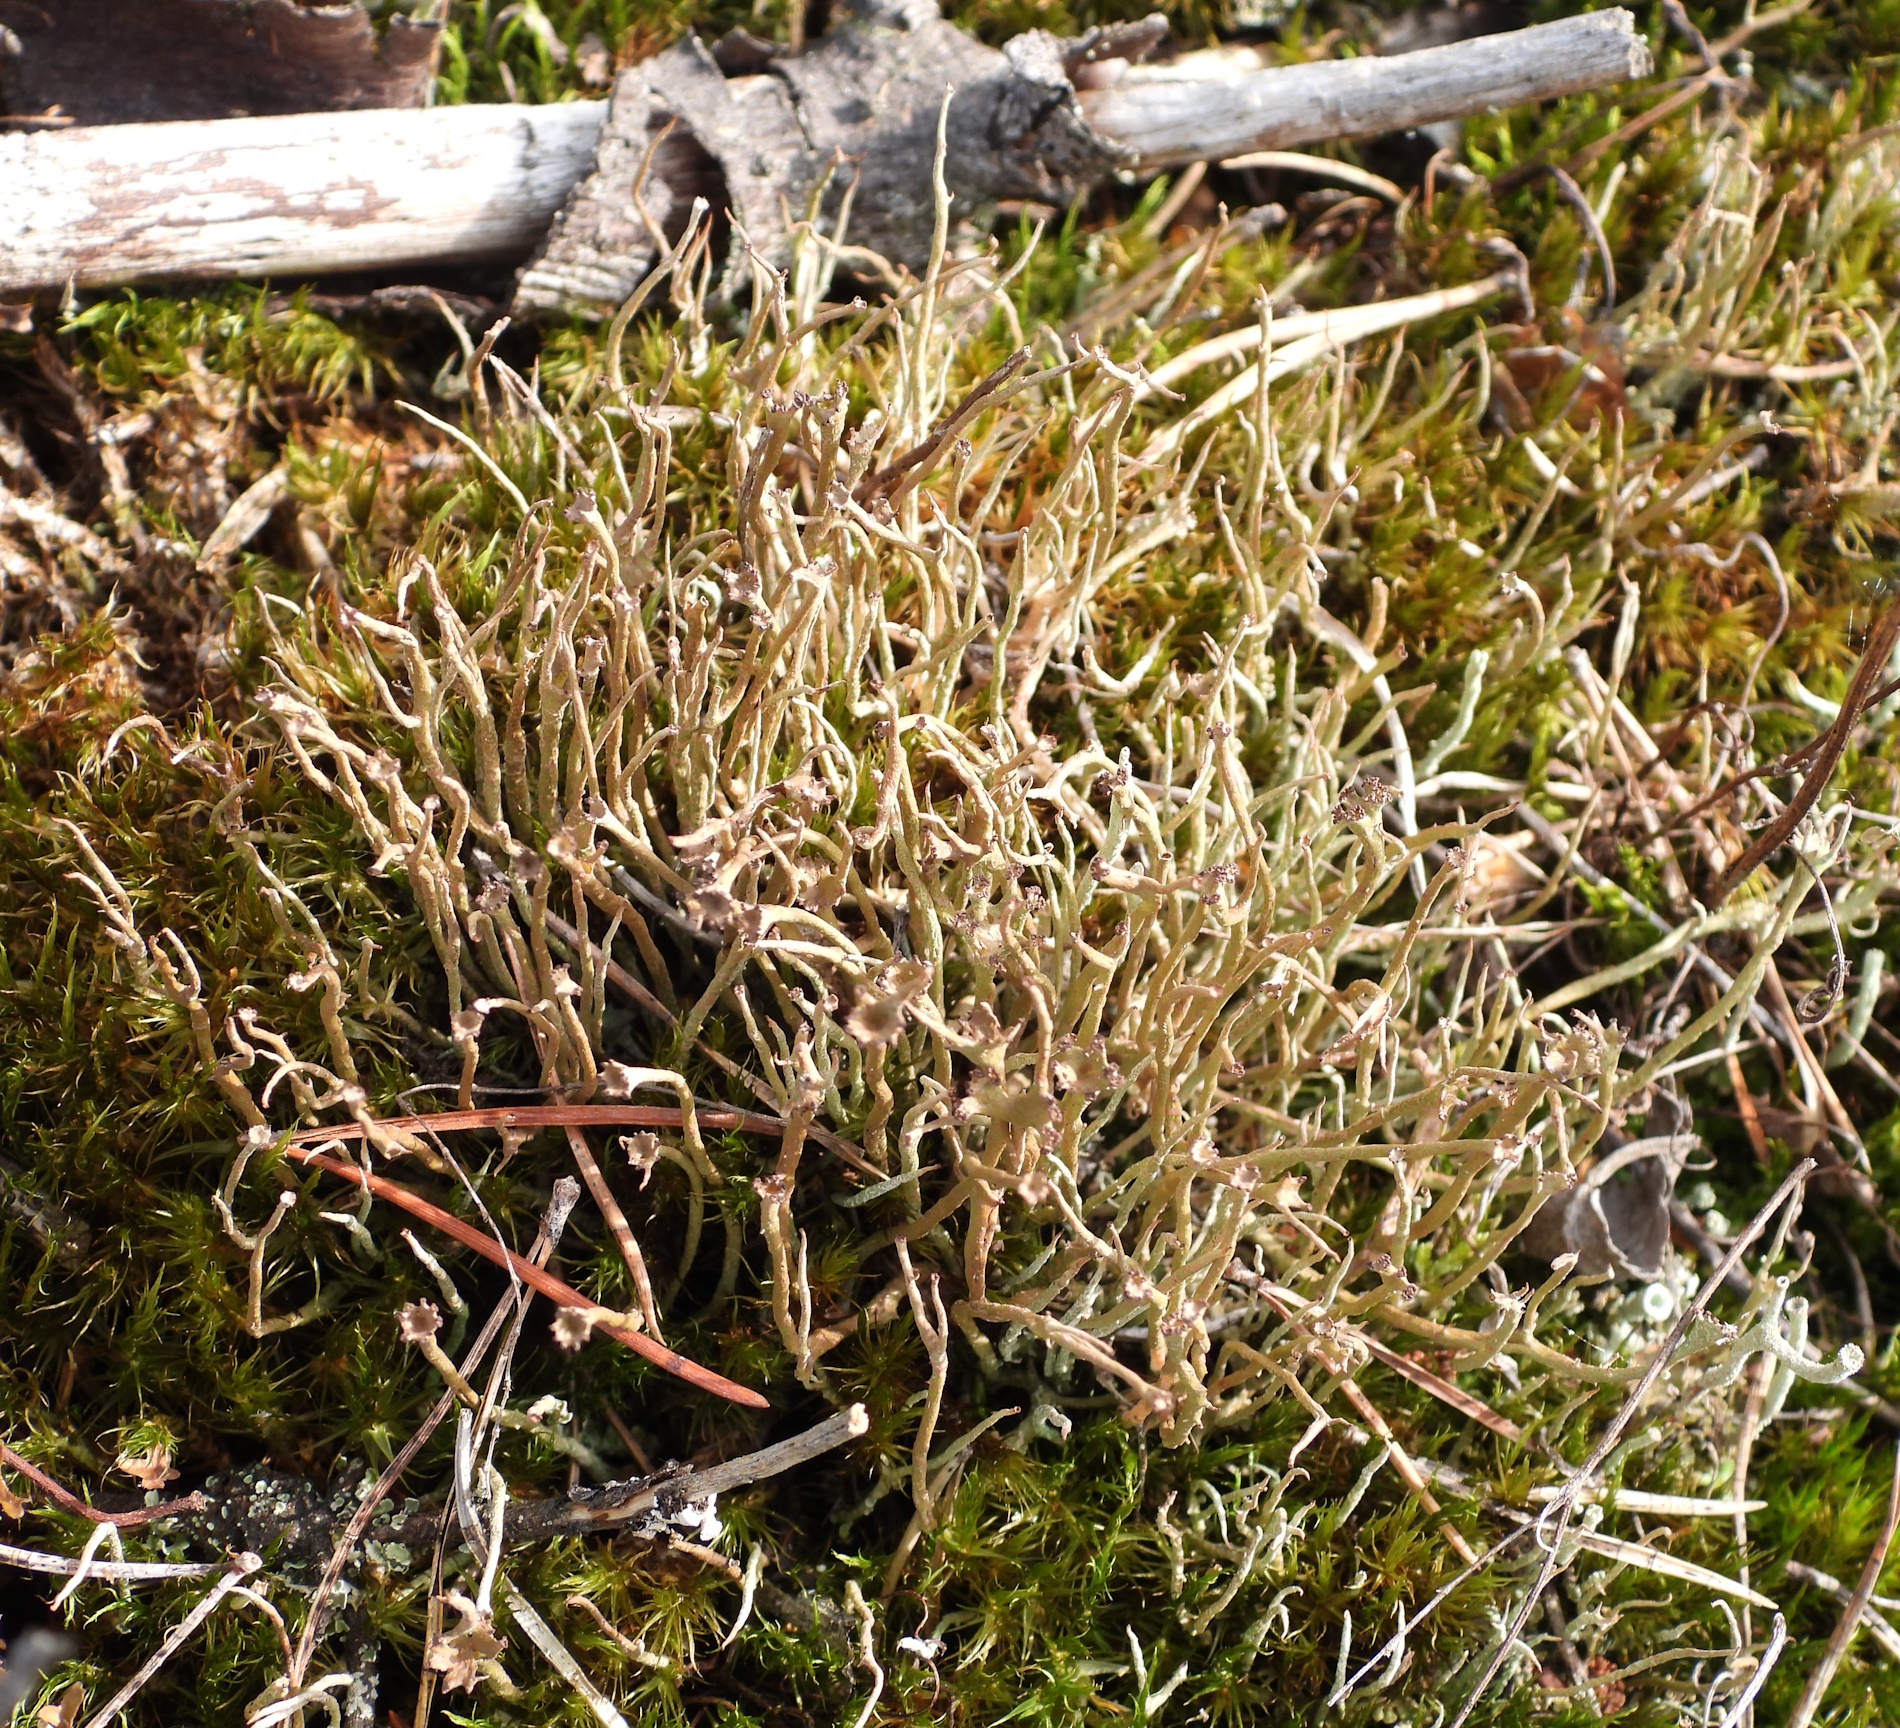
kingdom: Fungi
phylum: Ascomycota
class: Lecanoromycetes
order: Lecanorales
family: Cladoniaceae
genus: Cladonia
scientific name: Cladonia gracilis
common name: Smooth clad lichen
